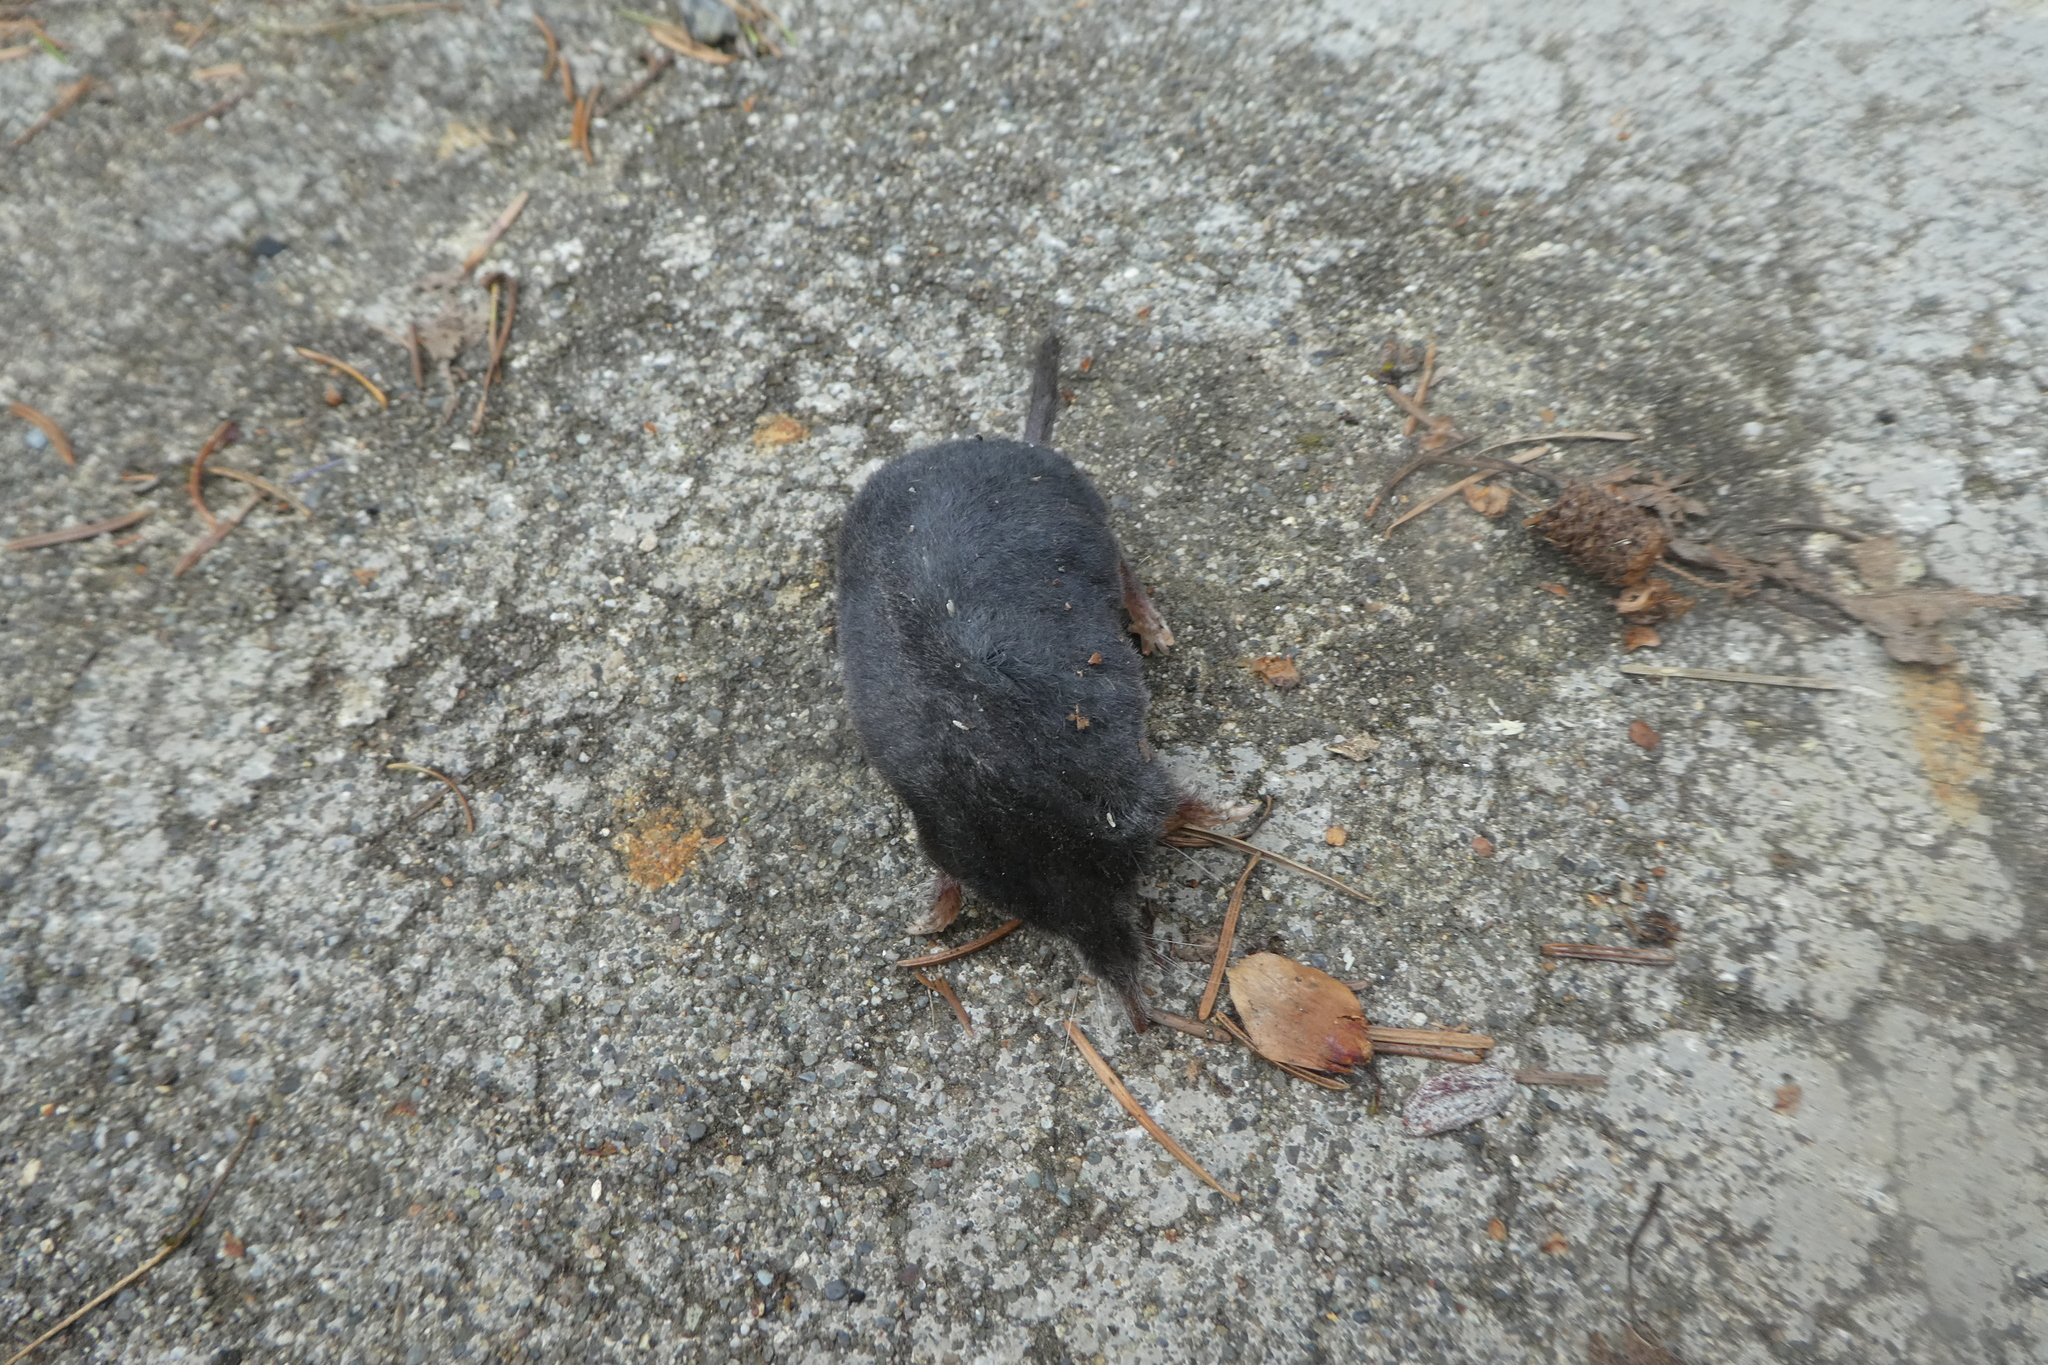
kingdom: Animalia
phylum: Chordata
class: Mammalia
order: Soricomorpha
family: Talpidae
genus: Neurotrichus
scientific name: Neurotrichus gibbsii
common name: American shrew mole
